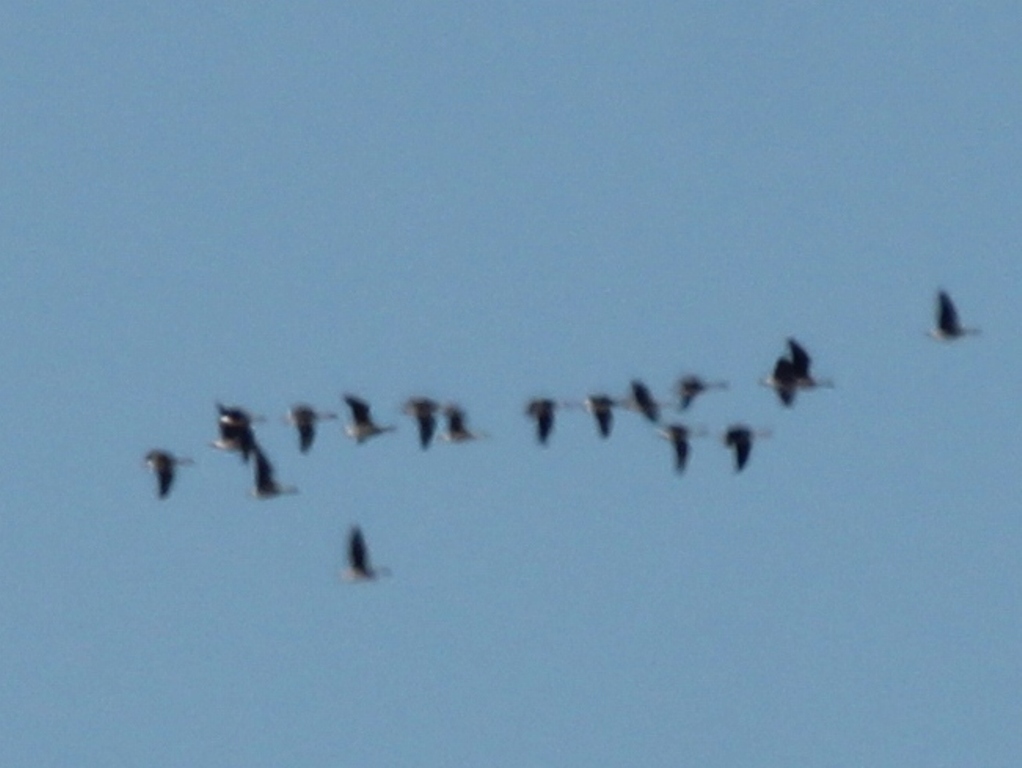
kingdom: Animalia
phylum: Chordata
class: Aves
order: Anseriformes
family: Anatidae
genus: Anser
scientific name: Anser
